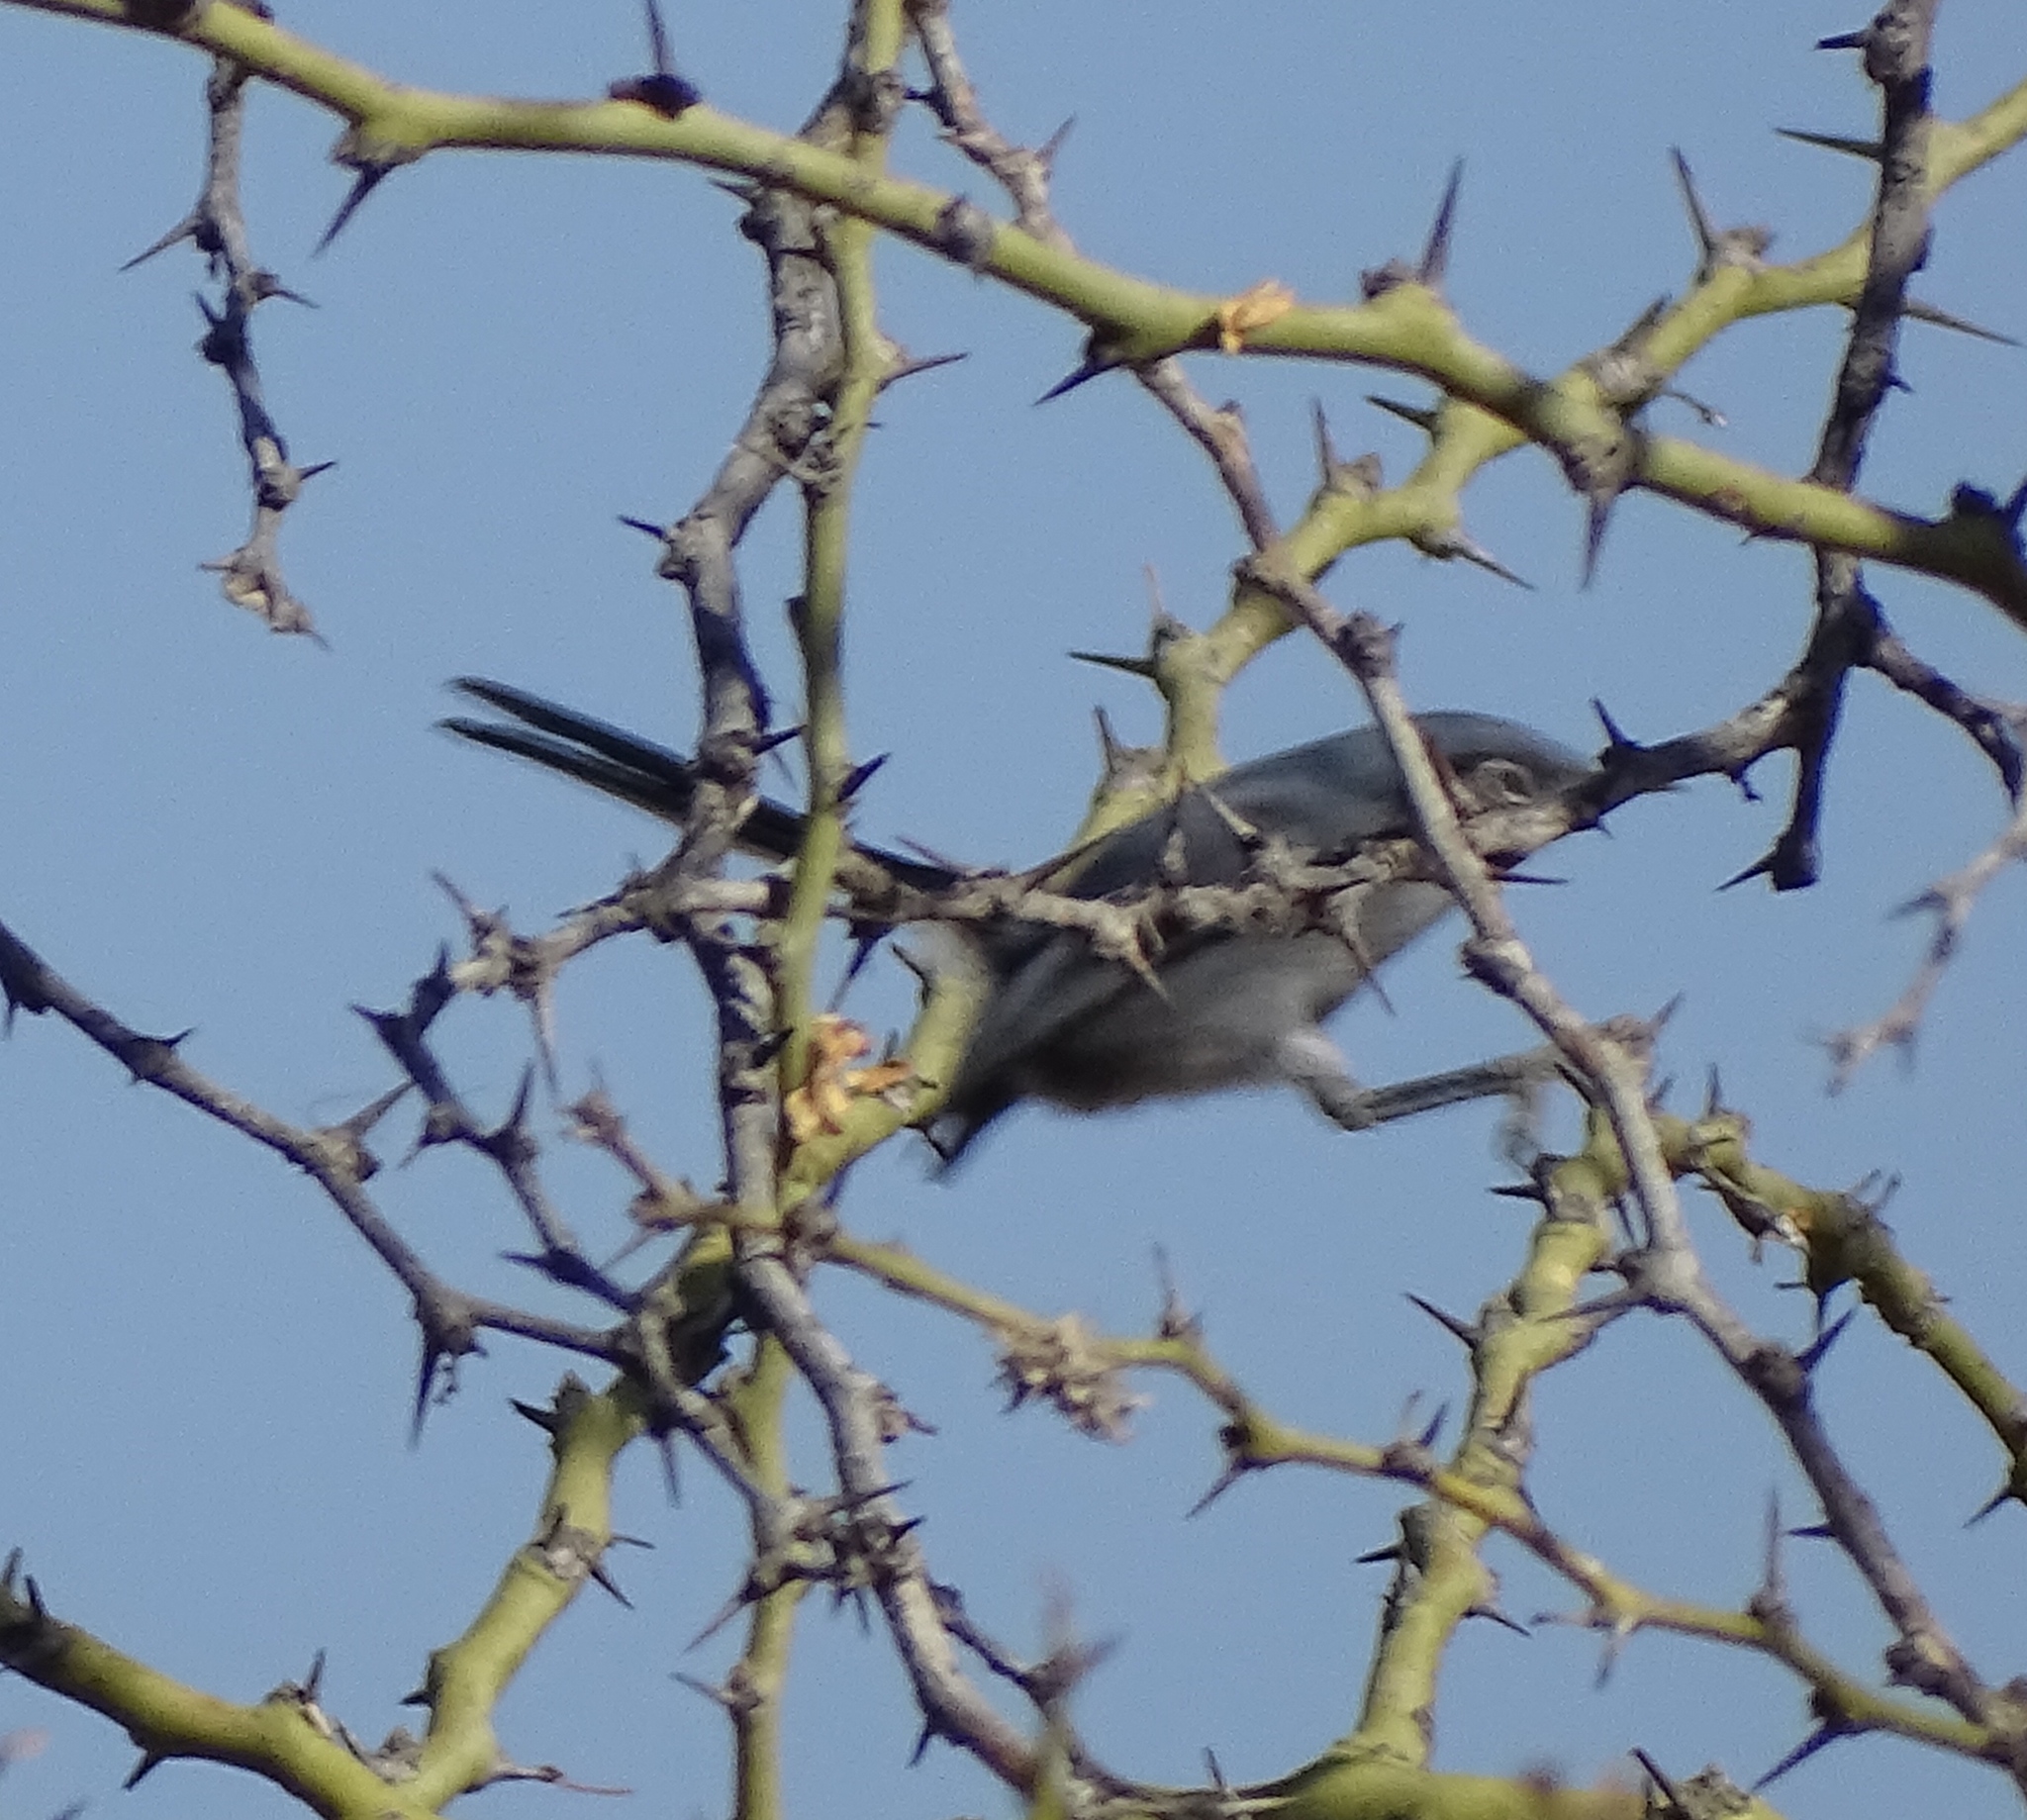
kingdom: Animalia
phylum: Chordata
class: Aves
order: Passeriformes
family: Polioptilidae
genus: Polioptila
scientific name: Polioptila dumicola
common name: Masked gnatcatcher
